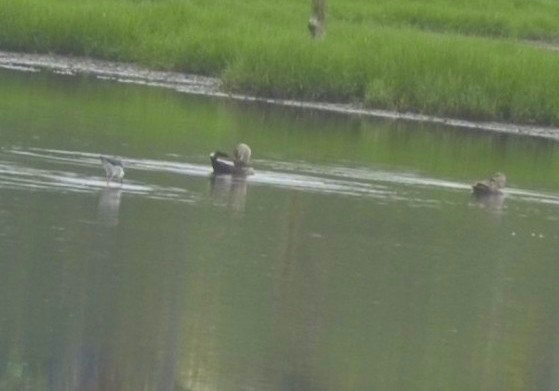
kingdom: Animalia
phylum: Chordata
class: Aves
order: Anseriformes
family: Anatidae
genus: Anas
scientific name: Anas poecilorhyncha
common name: Indian spot-billed duck
